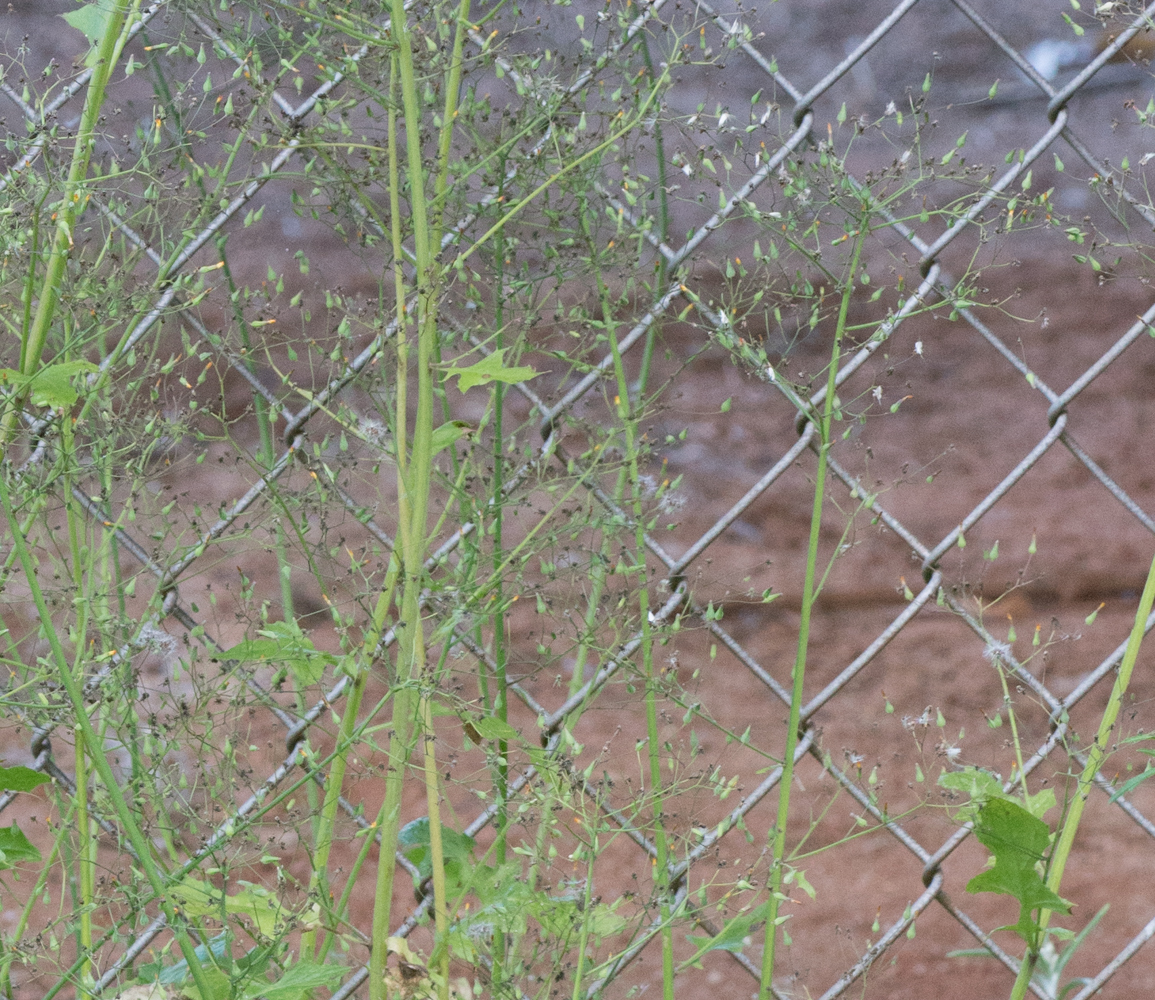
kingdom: Plantae
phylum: Tracheophyta
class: Magnoliopsida
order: Asterales
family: Asteraceae
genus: Youngia
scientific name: Youngia japonica
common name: Oriental false hawksbeard
